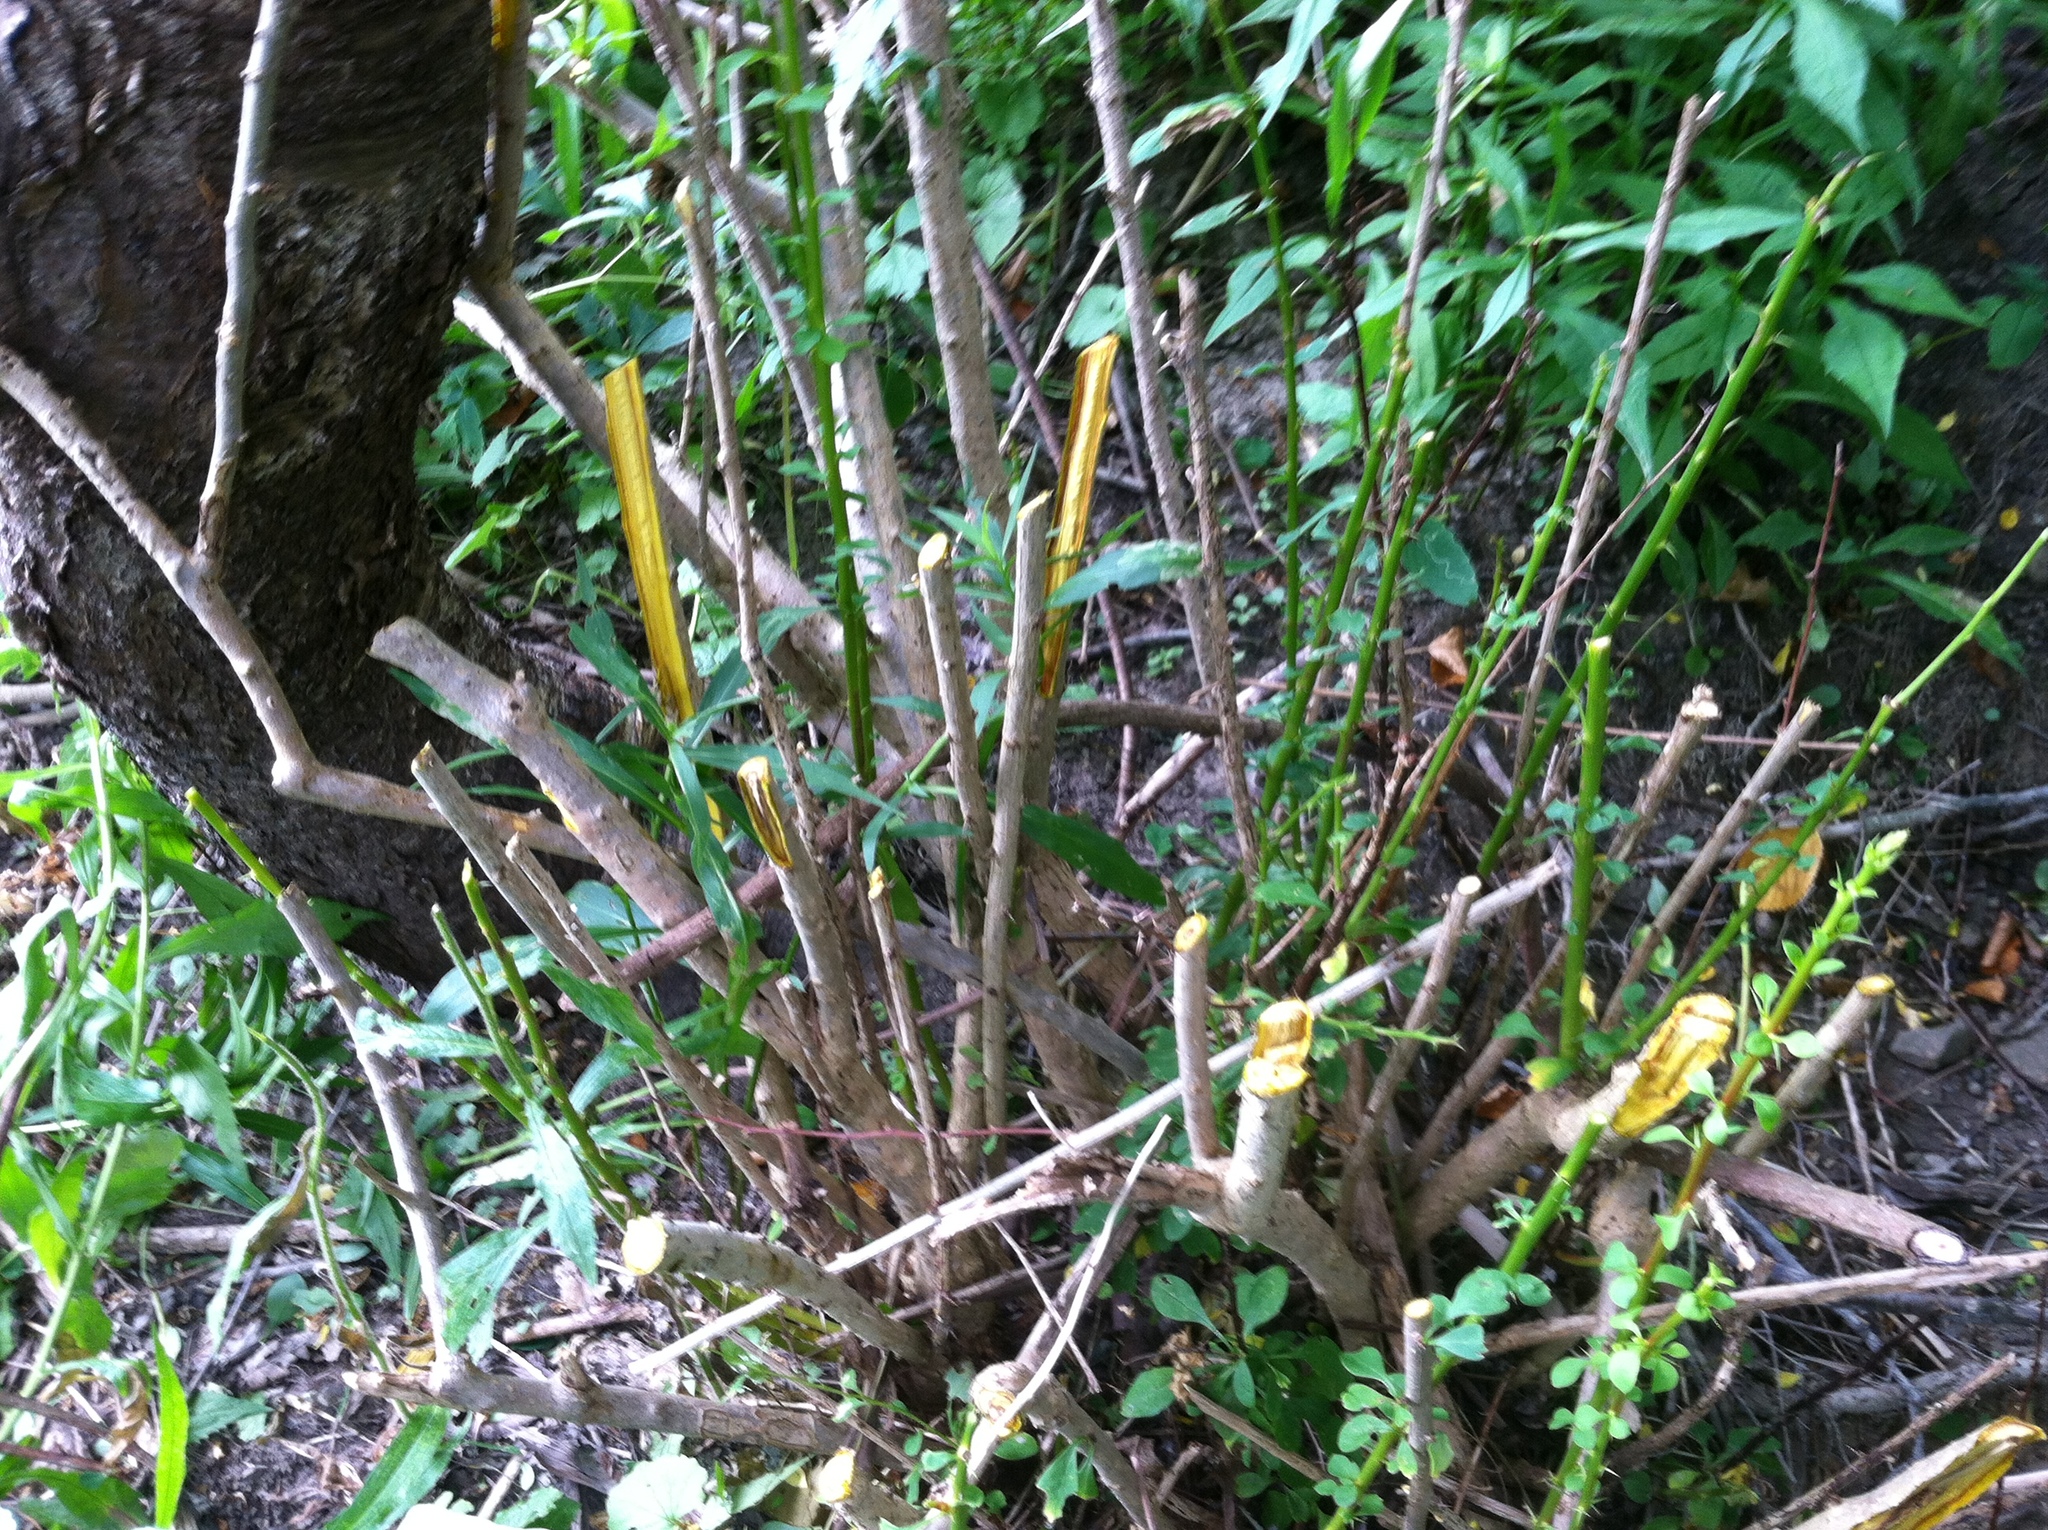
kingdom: Plantae
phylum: Tracheophyta
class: Magnoliopsida
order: Ranunculales
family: Berberidaceae
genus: Berberis
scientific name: Berberis thunbergii
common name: Japanese barberry
